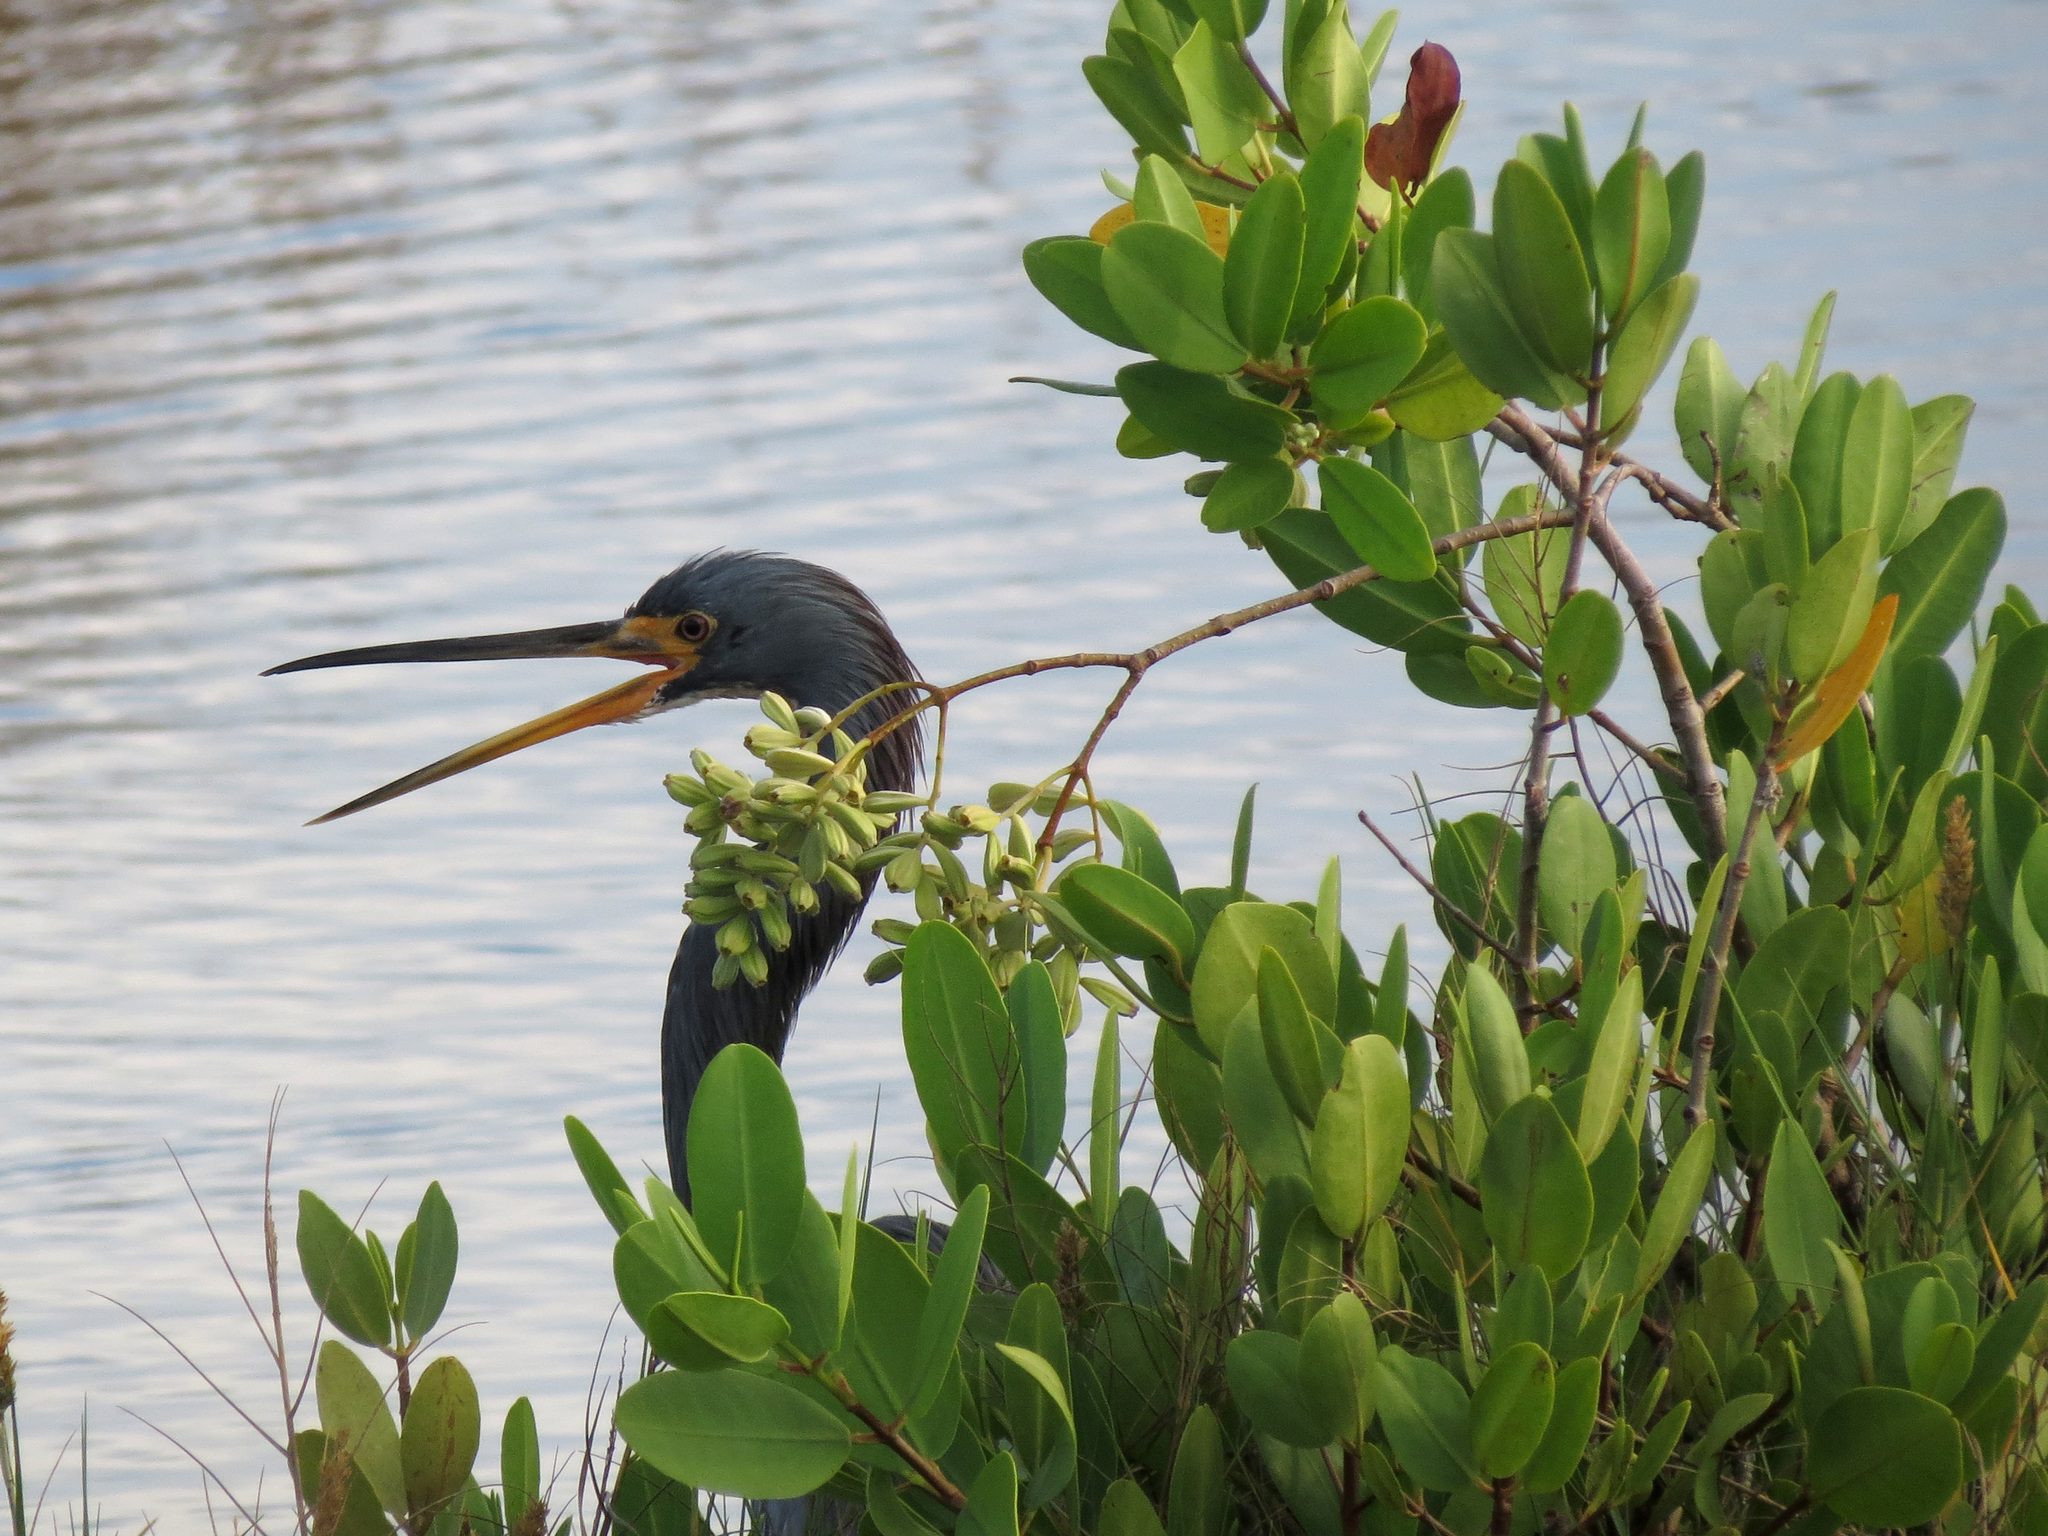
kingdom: Animalia
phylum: Chordata
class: Aves
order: Pelecaniformes
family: Ardeidae
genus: Egretta
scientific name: Egretta tricolor
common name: Tricolored heron
